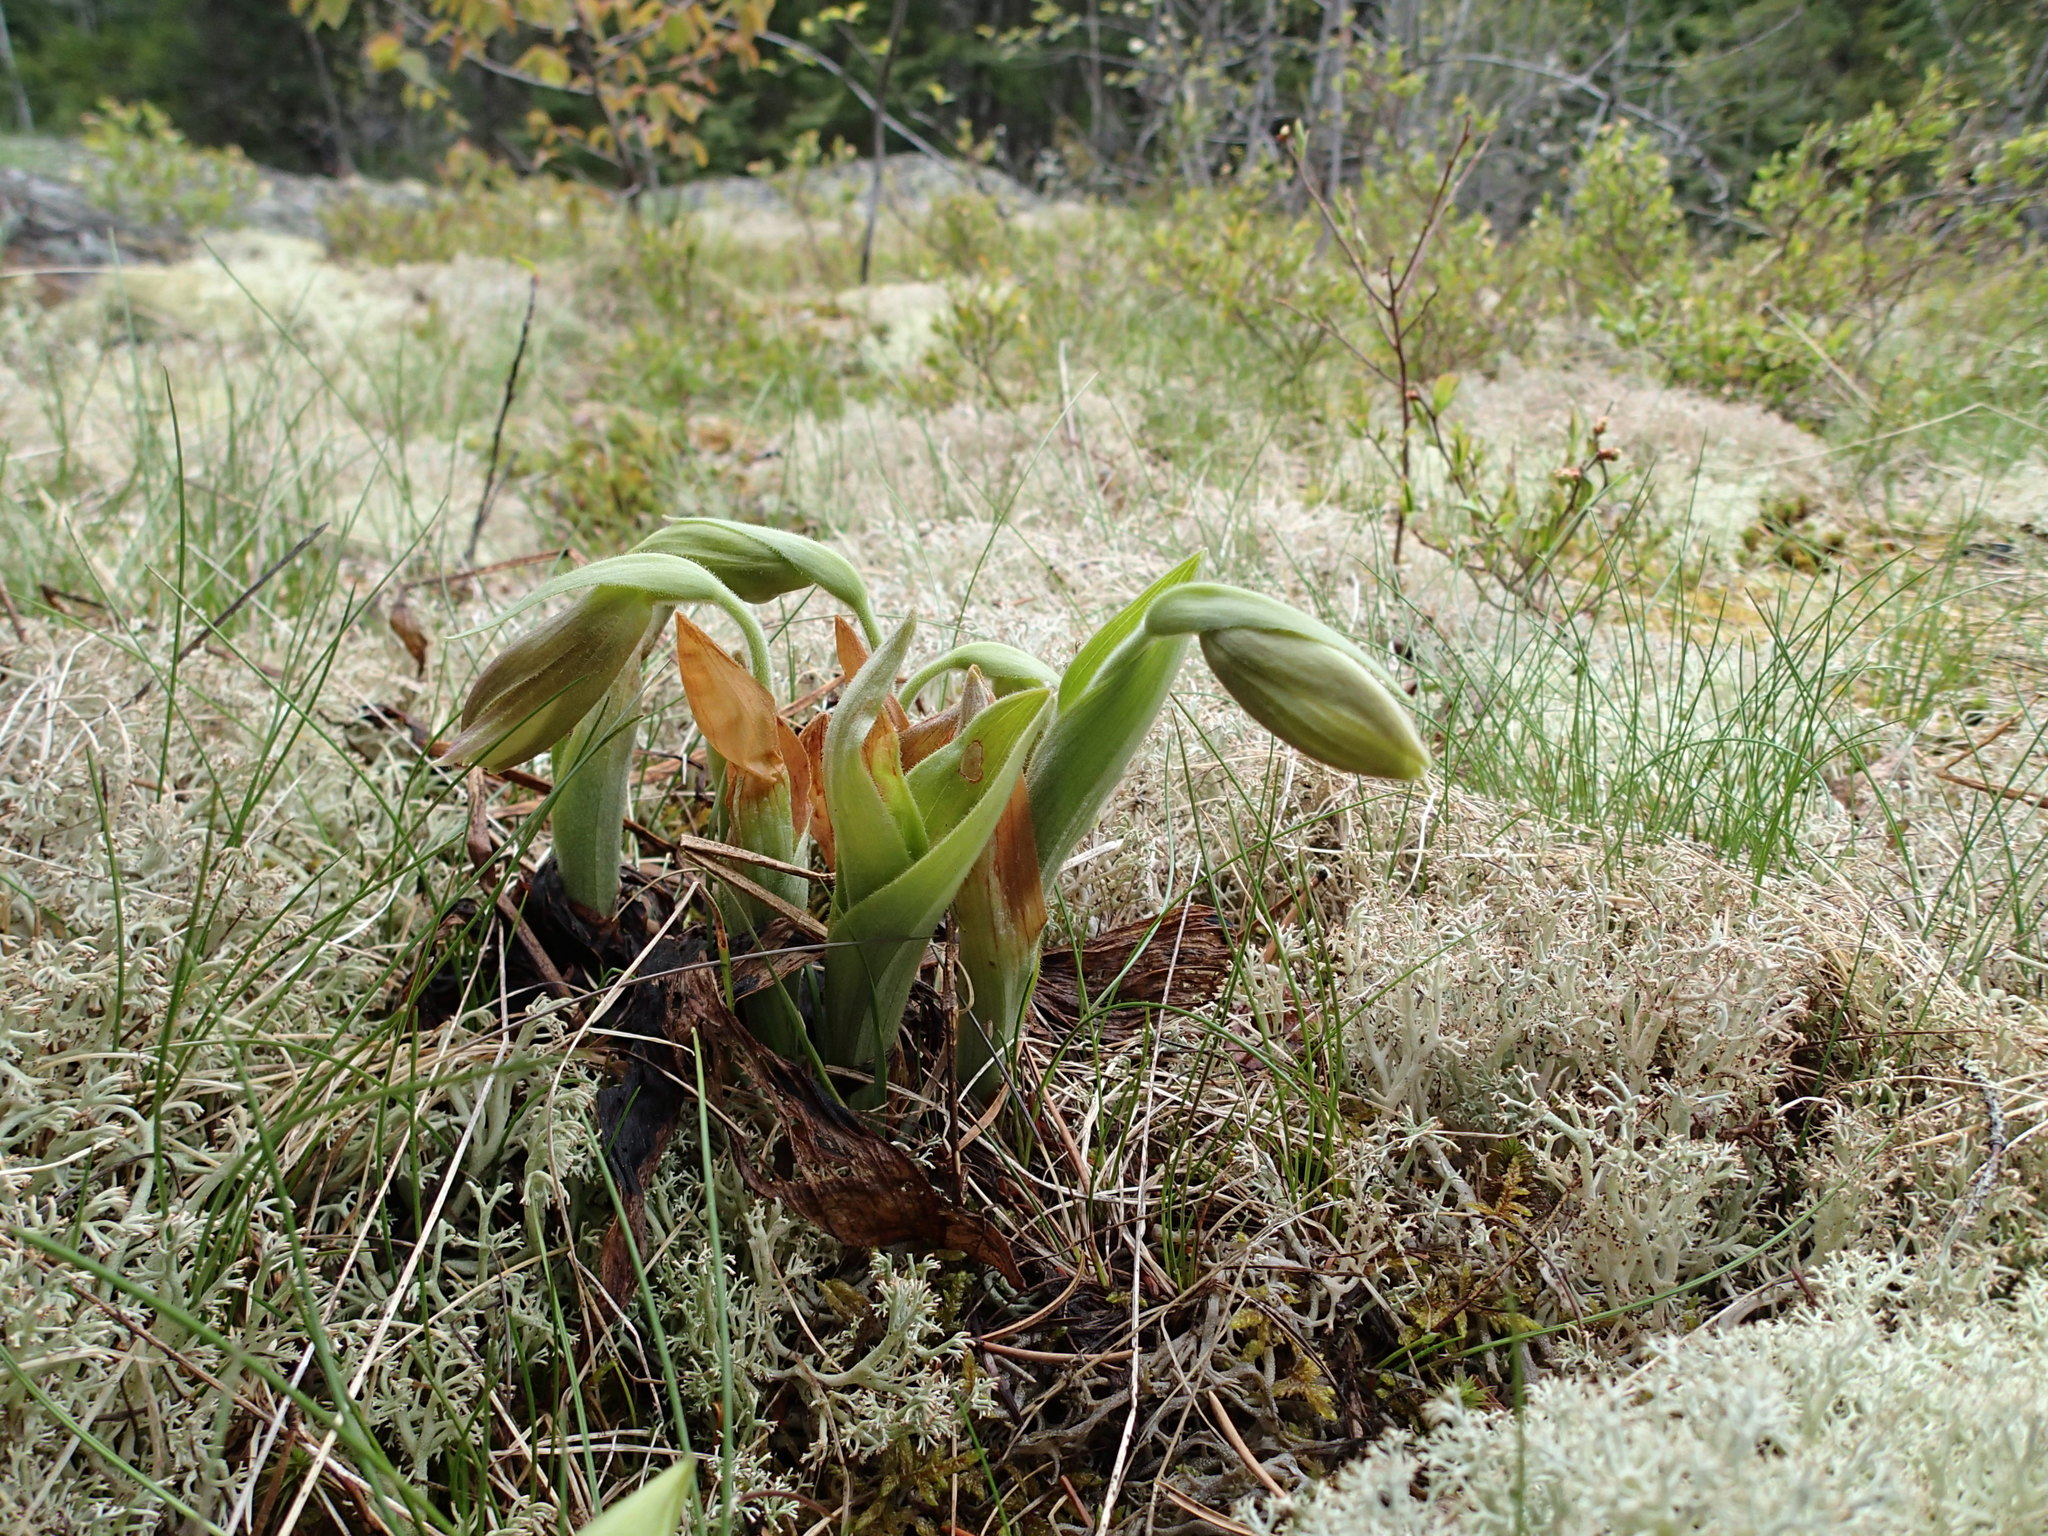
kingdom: Plantae
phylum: Tracheophyta
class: Liliopsida
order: Asparagales
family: Orchidaceae
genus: Cypripedium
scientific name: Cypripedium acaule
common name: Pink lady's-slipper
